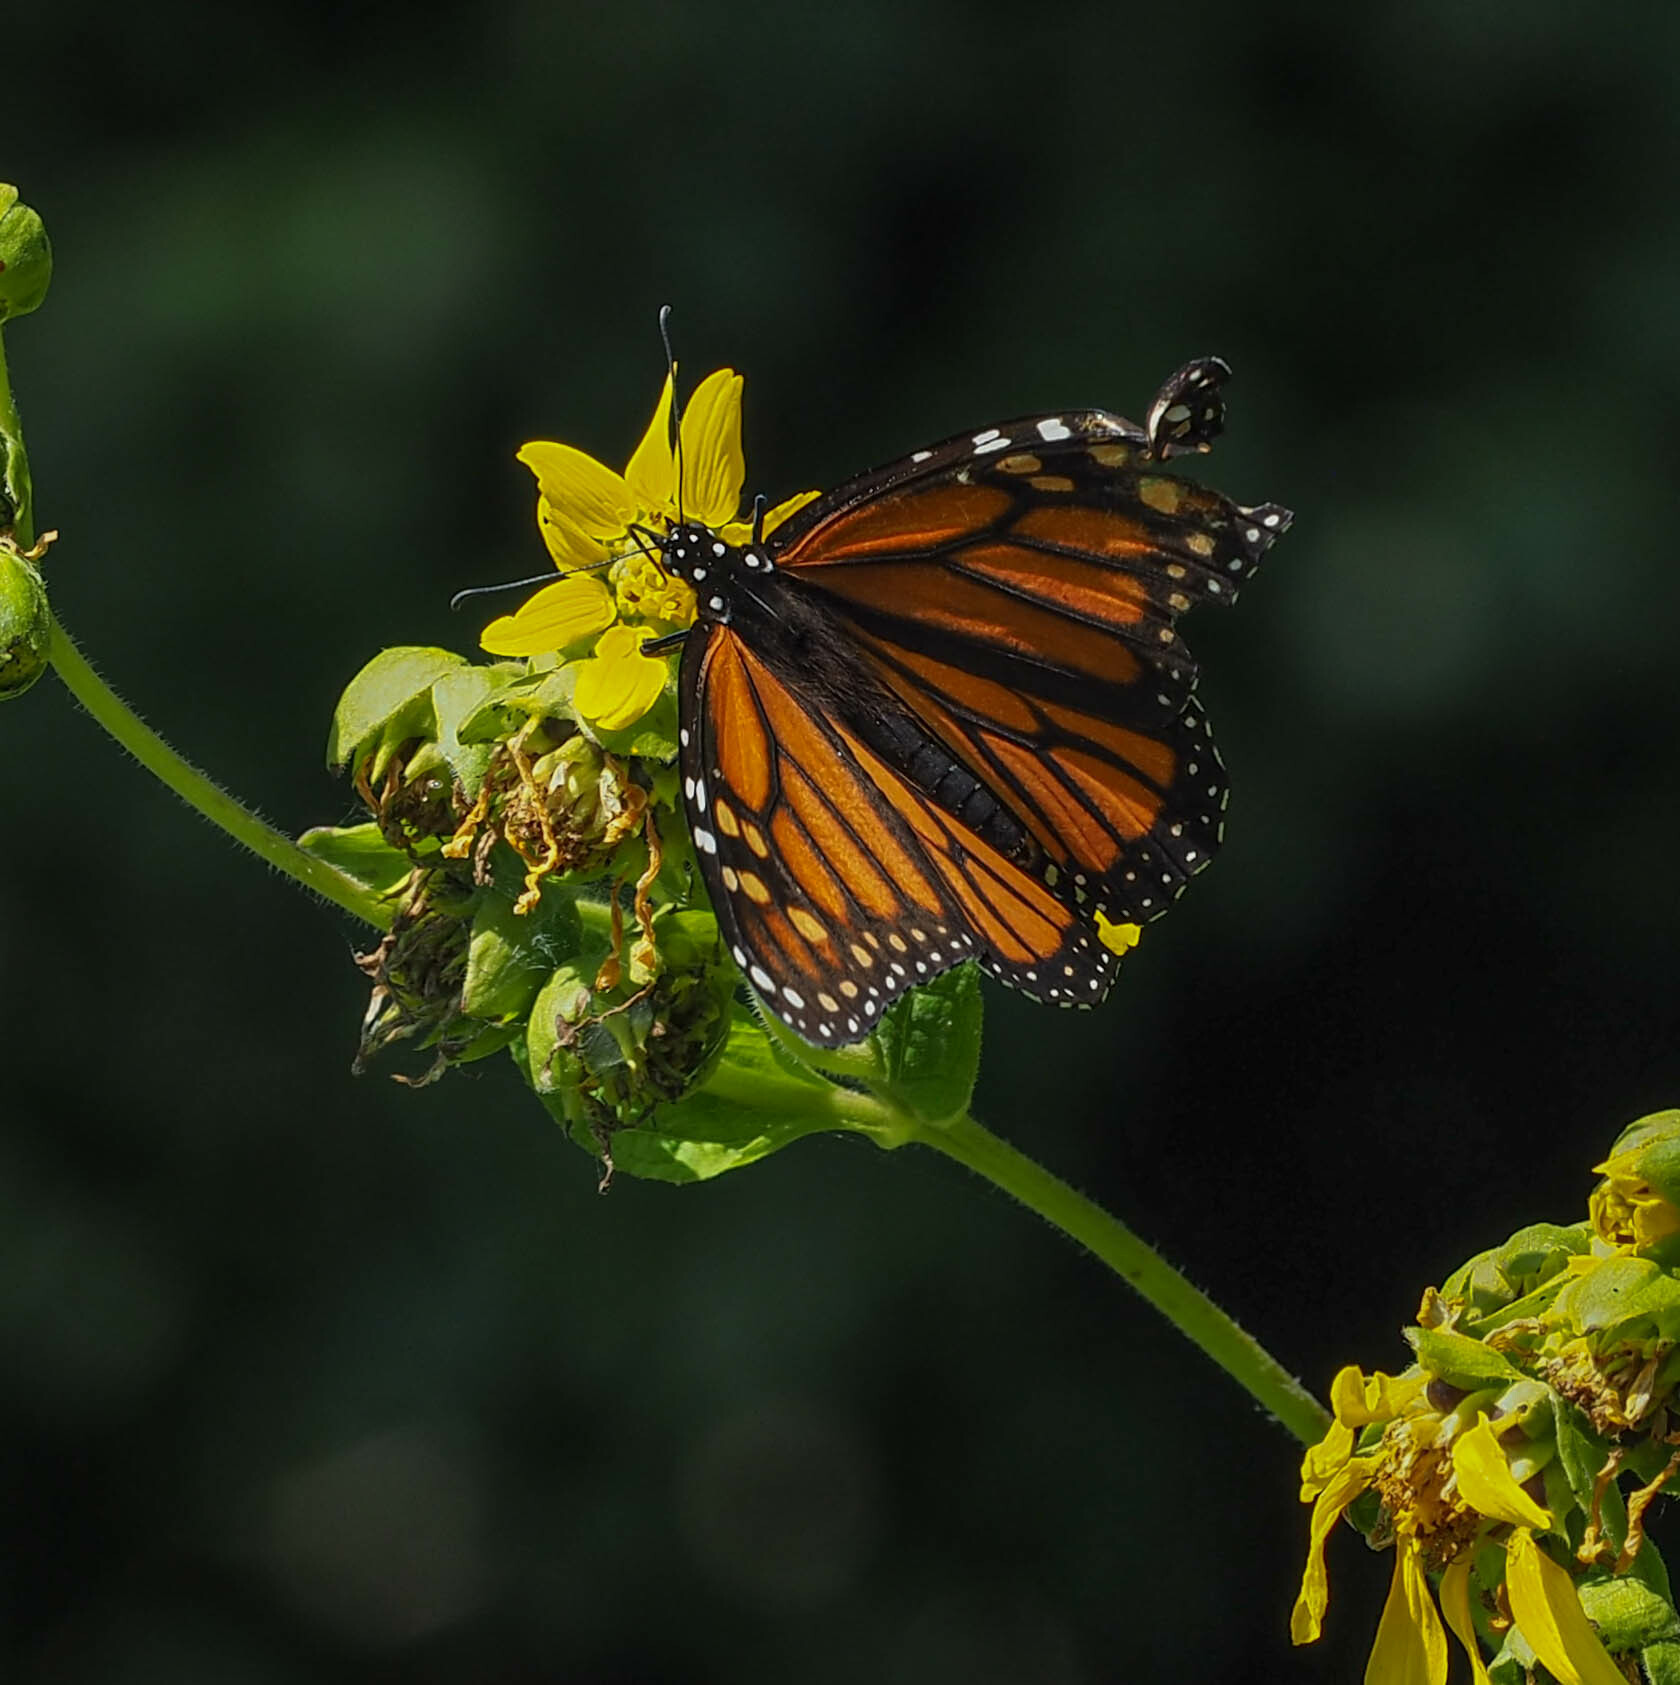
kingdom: Animalia
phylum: Arthropoda
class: Insecta
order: Lepidoptera
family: Nymphalidae
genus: Danaus
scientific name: Danaus plexippus
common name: Monarch
